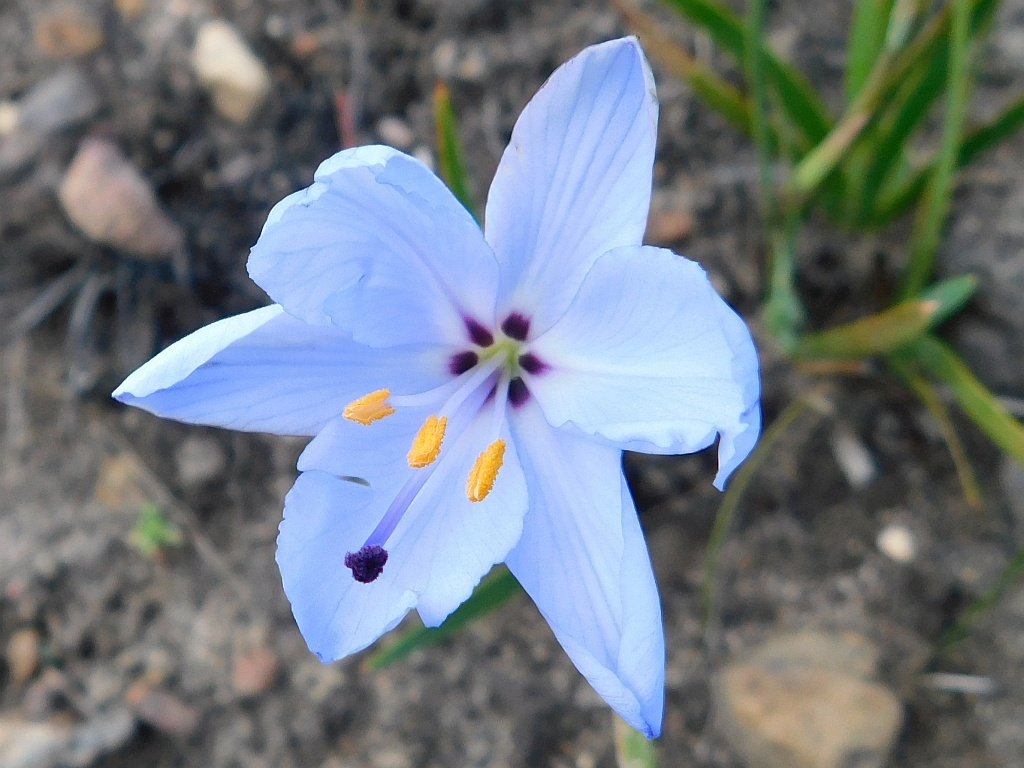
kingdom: Plantae
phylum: Tracheophyta
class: Liliopsida
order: Asparagales
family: Iridaceae
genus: Aristea
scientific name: Aristea spiralis
